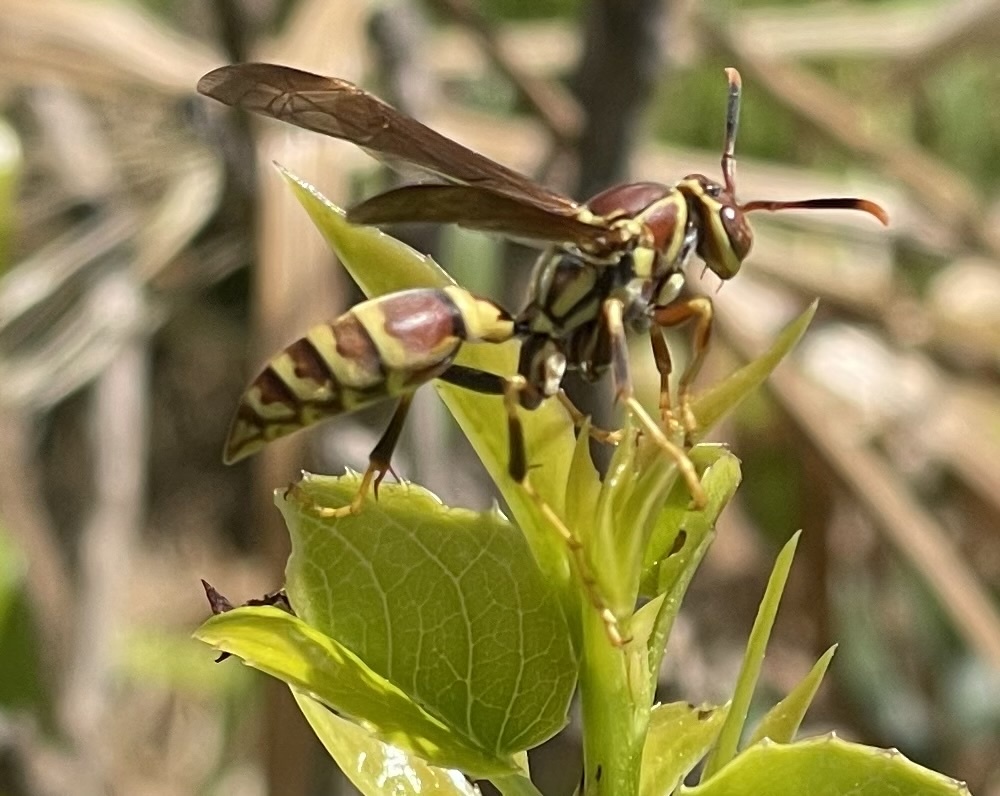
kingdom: Animalia
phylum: Arthropoda
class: Insecta
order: Hymenoptera
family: Eumenidae
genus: Polistes
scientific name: Polistes exclamans
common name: Paper wasp
